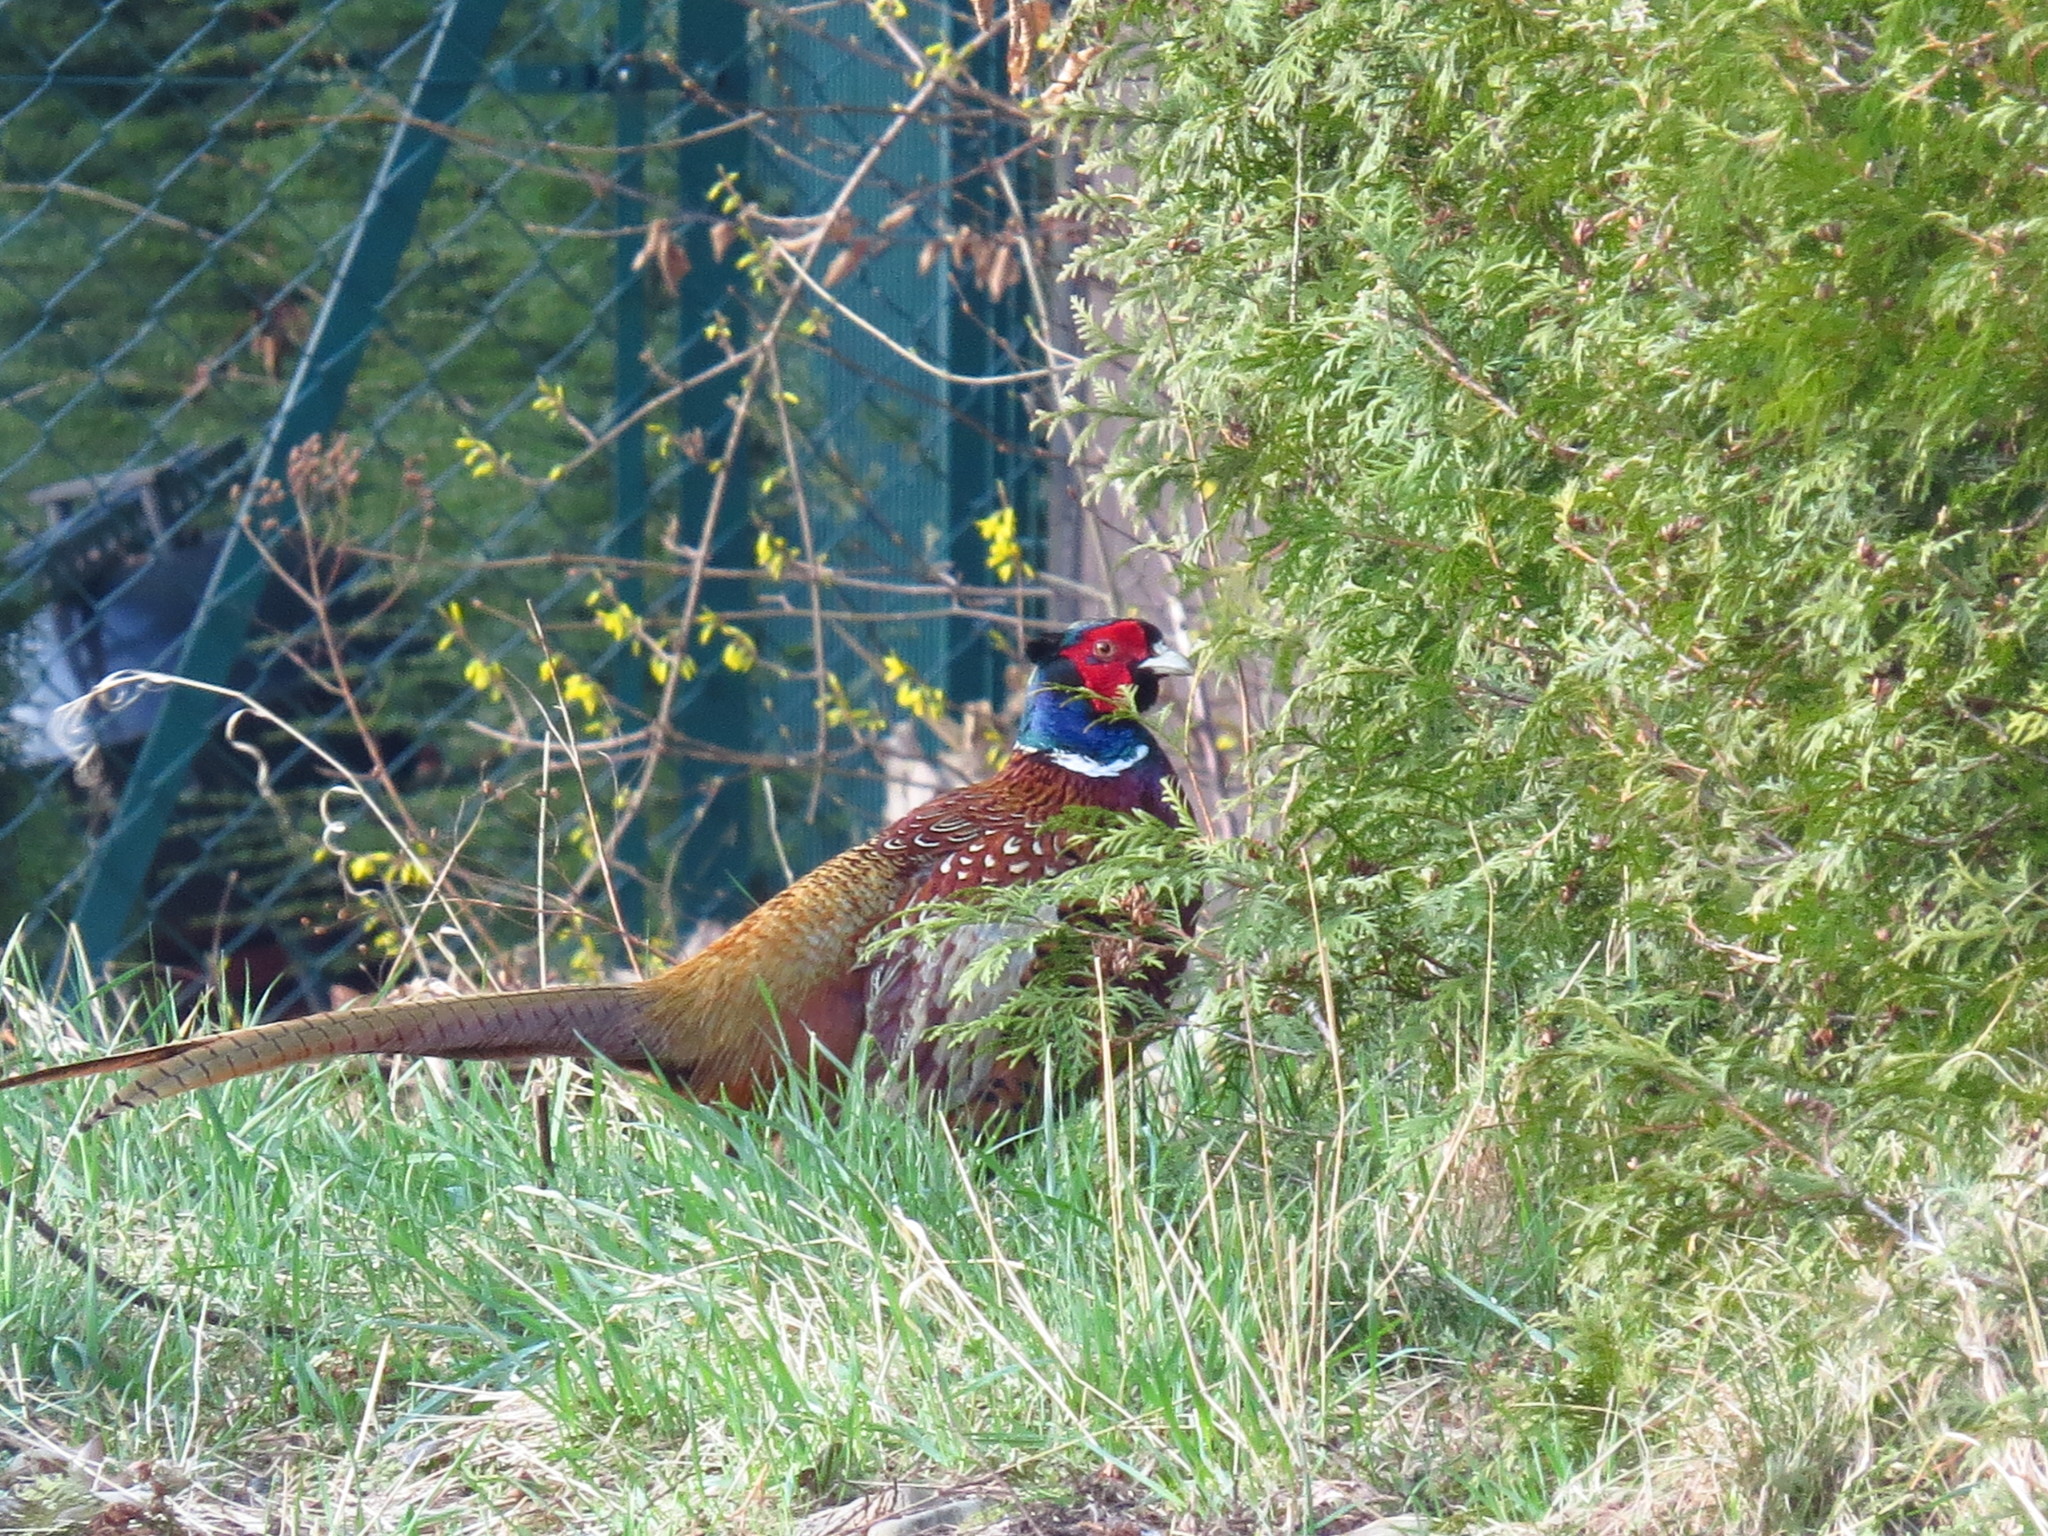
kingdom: Animalia
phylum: Chordata
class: Aves
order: Galliformes
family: Phasianidae
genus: Phasianus
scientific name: Phasianus colchicus
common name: Common pheasant
